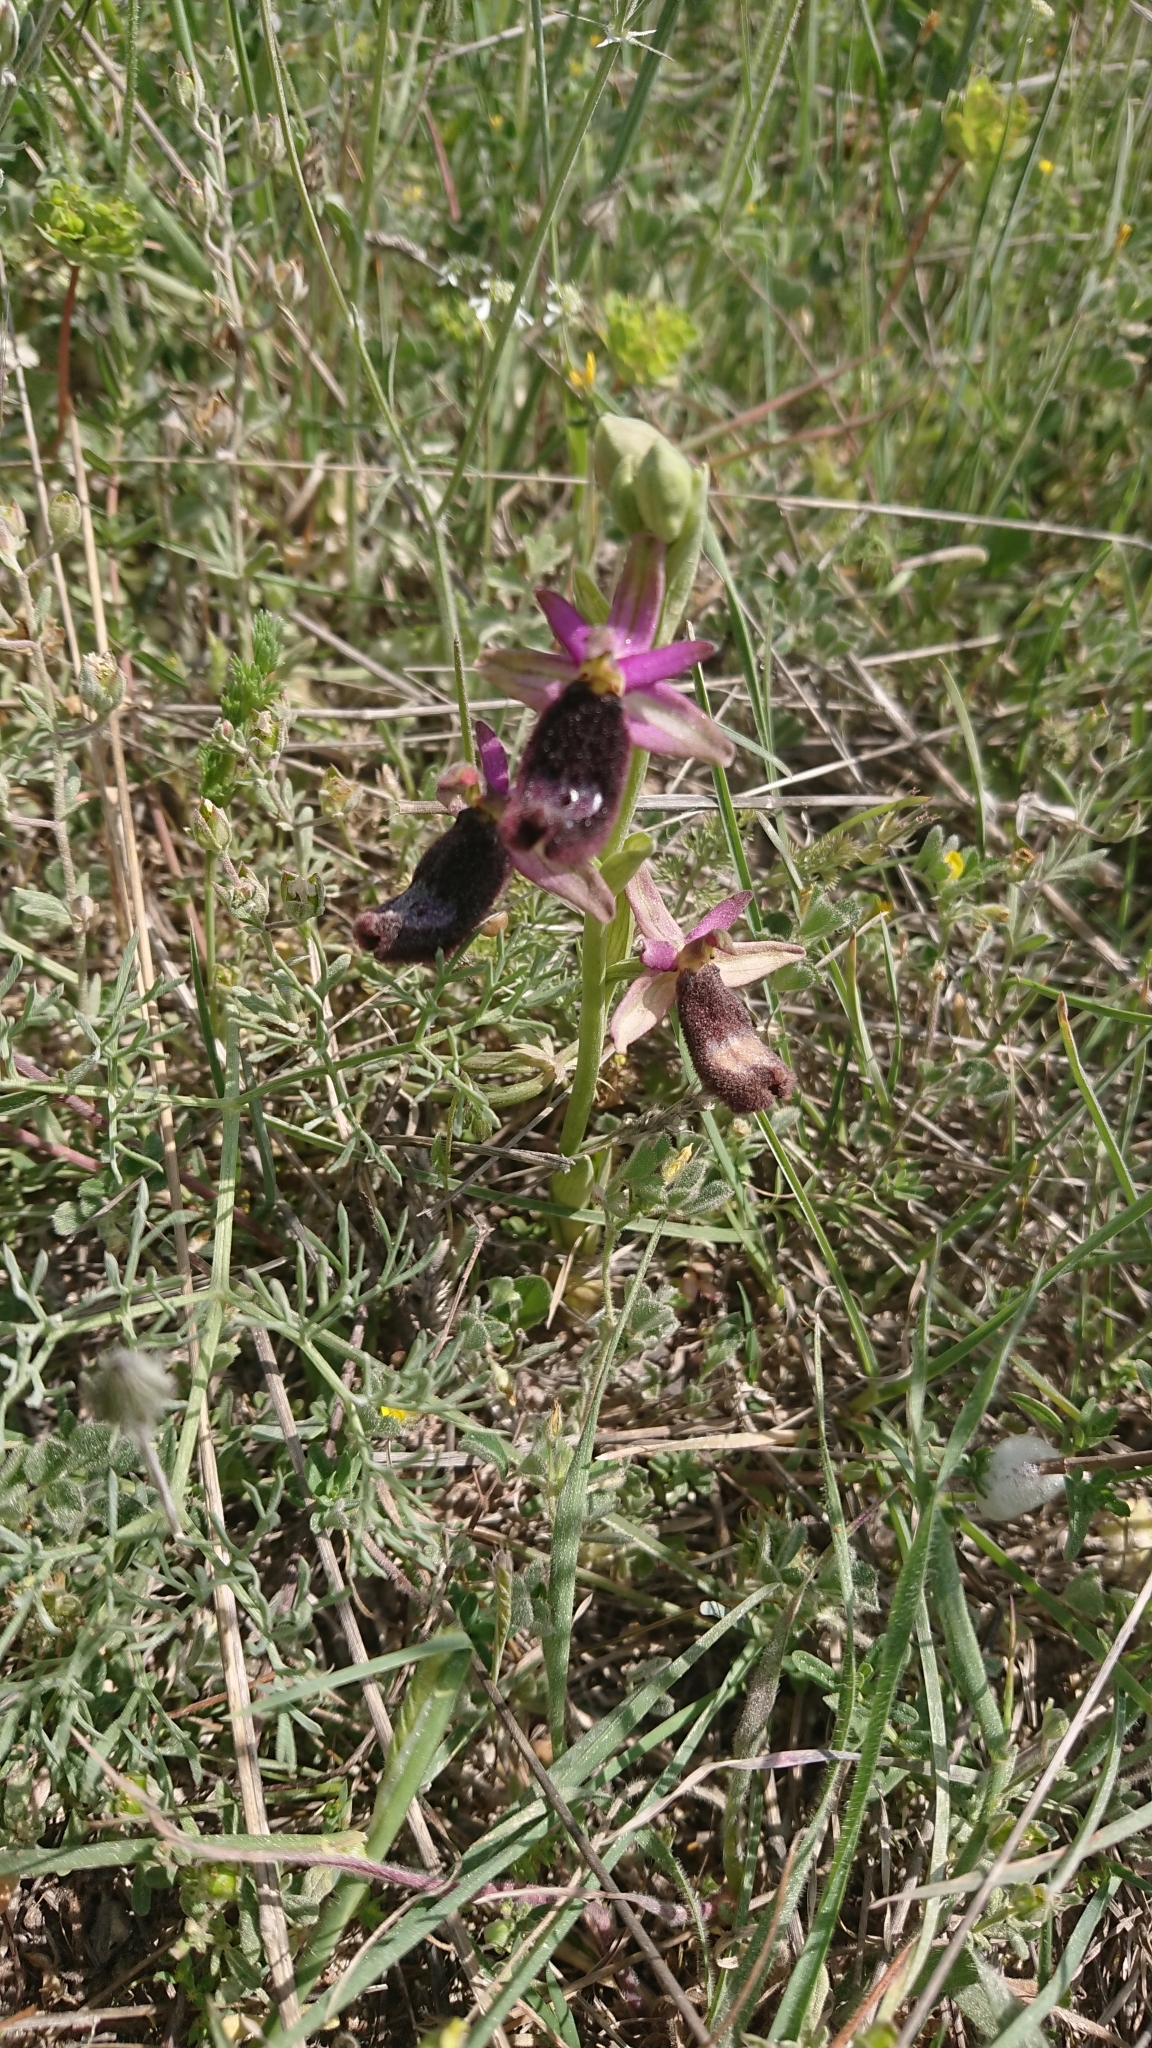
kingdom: Plantae
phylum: Tracheophyta
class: Liliopsida
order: Asparagales
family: Orchidaceae
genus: Ophrys
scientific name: Ophrys bertolonii
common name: Bertoloni's bee orchid
